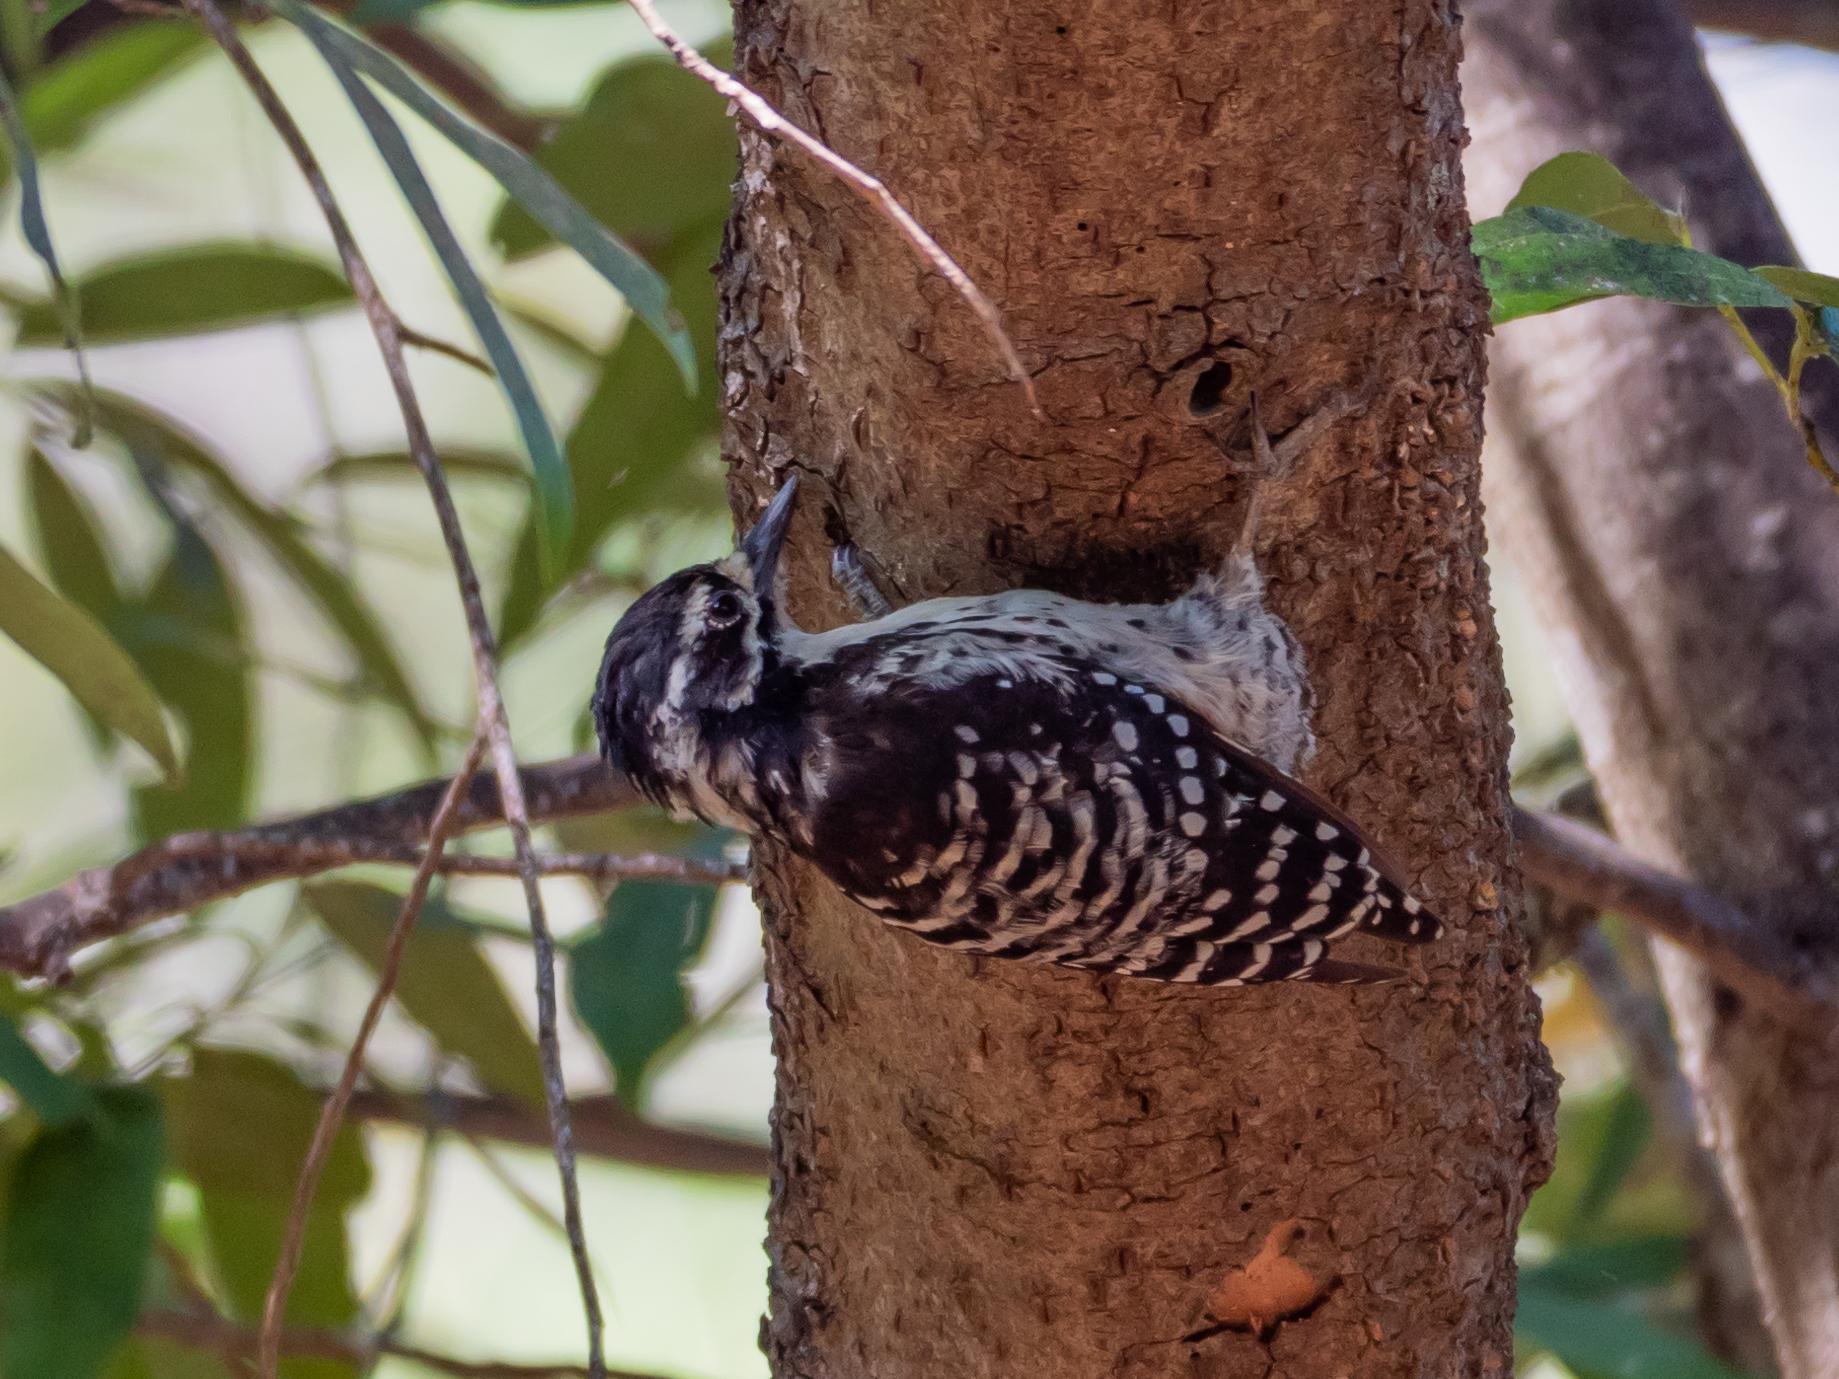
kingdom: Animalia
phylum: Chordata
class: Aves
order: Piciformes
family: Picidae
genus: Dryobates
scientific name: Dryobates nuttallii
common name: Nuttall's woodpecker
